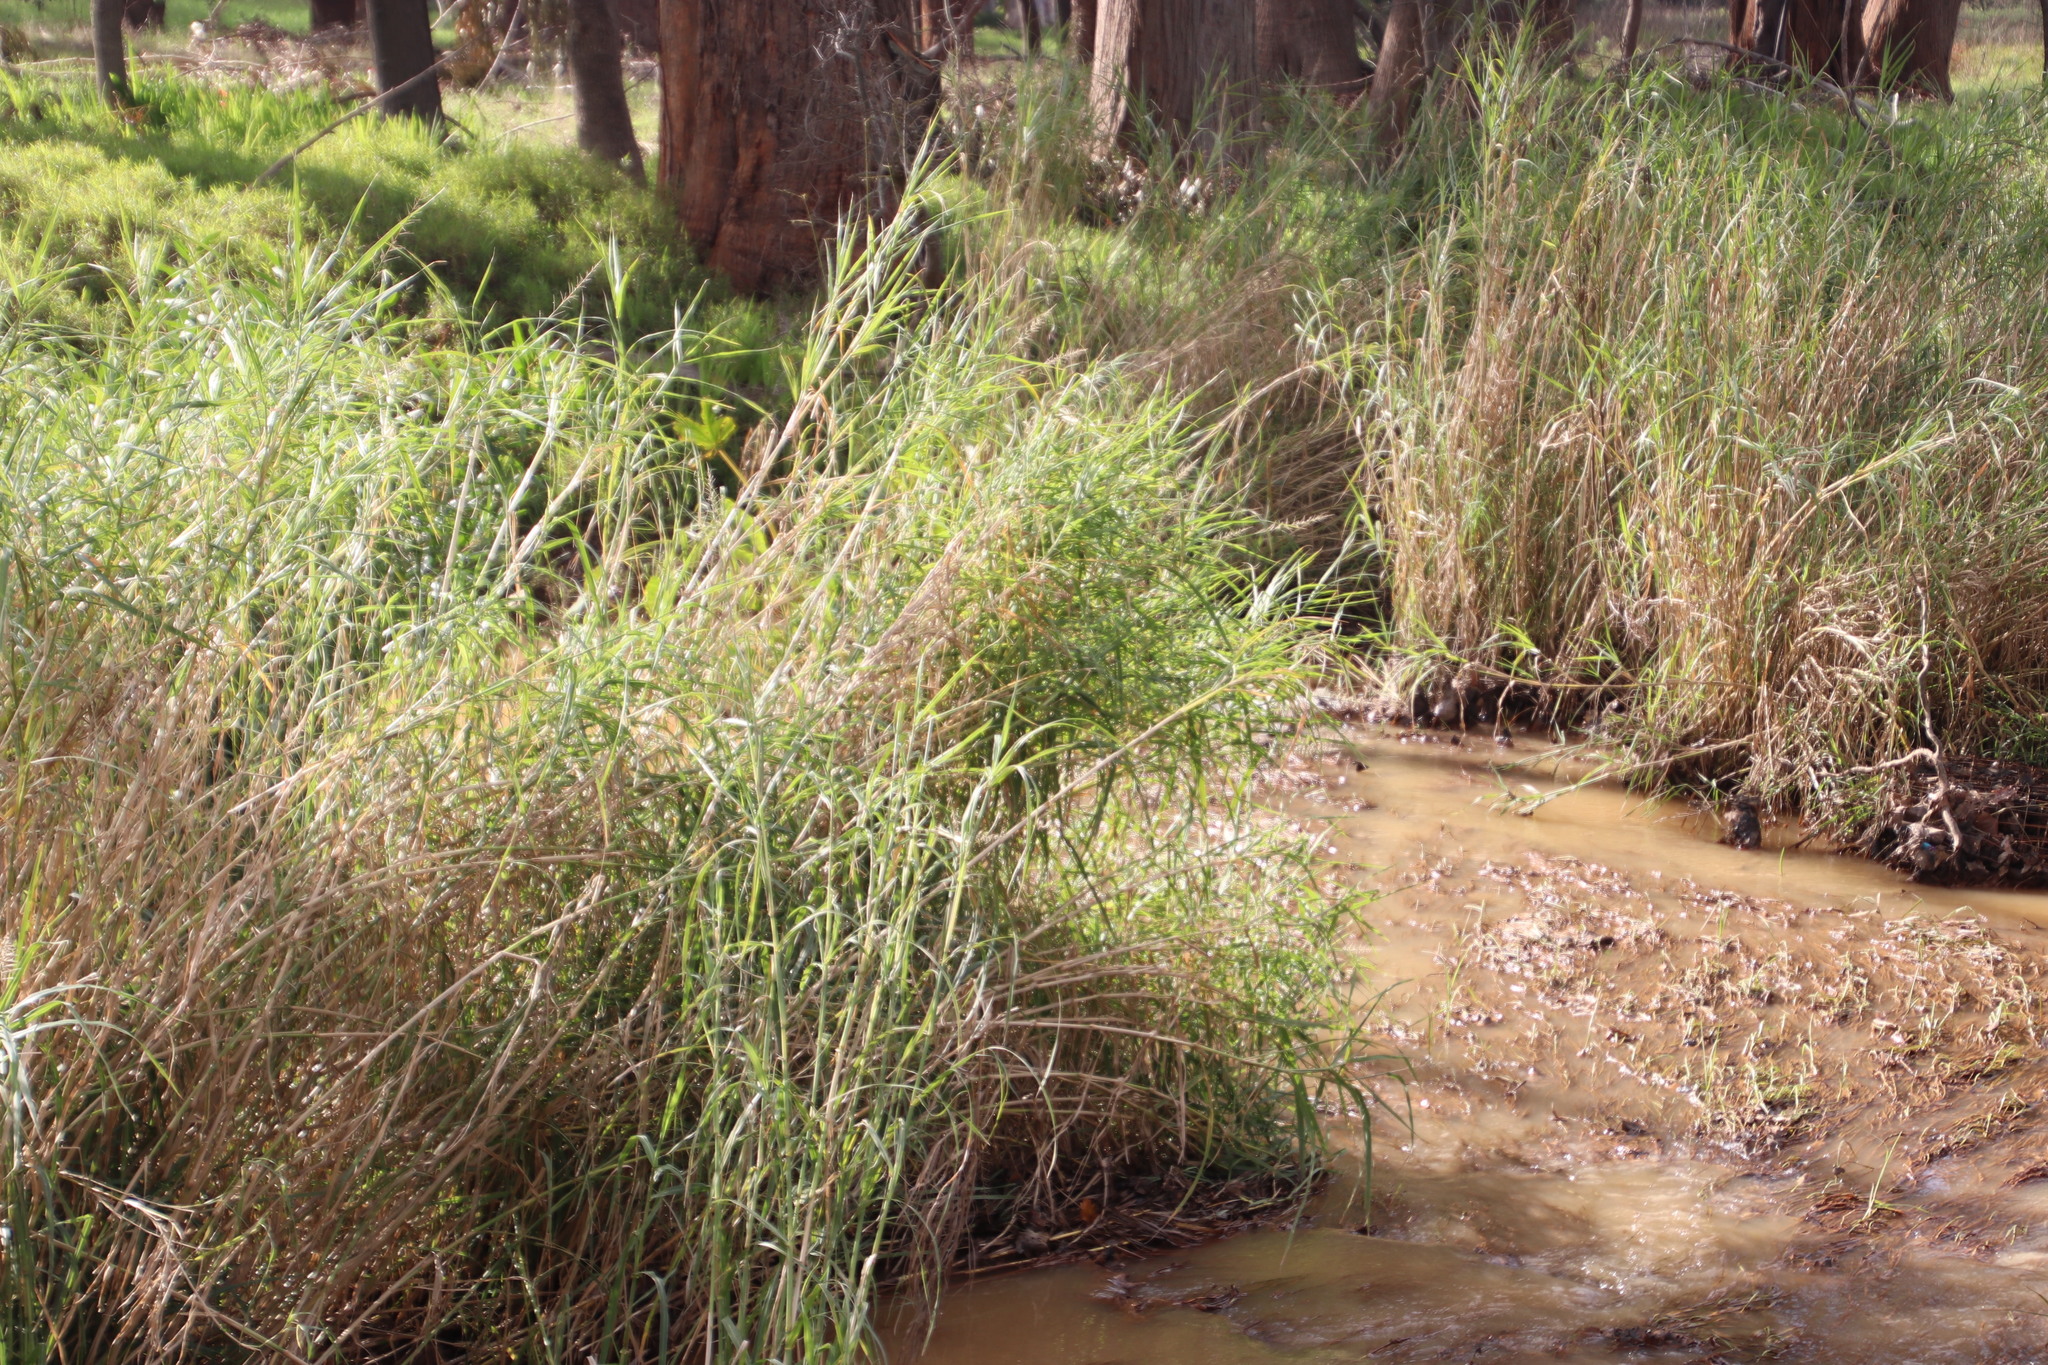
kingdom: Plantae
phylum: Tracheophyta
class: Liliopsida
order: Poales
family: Poaceae
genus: Echinochloa
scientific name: Echinochloa pyramidalis
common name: Antelope grass
